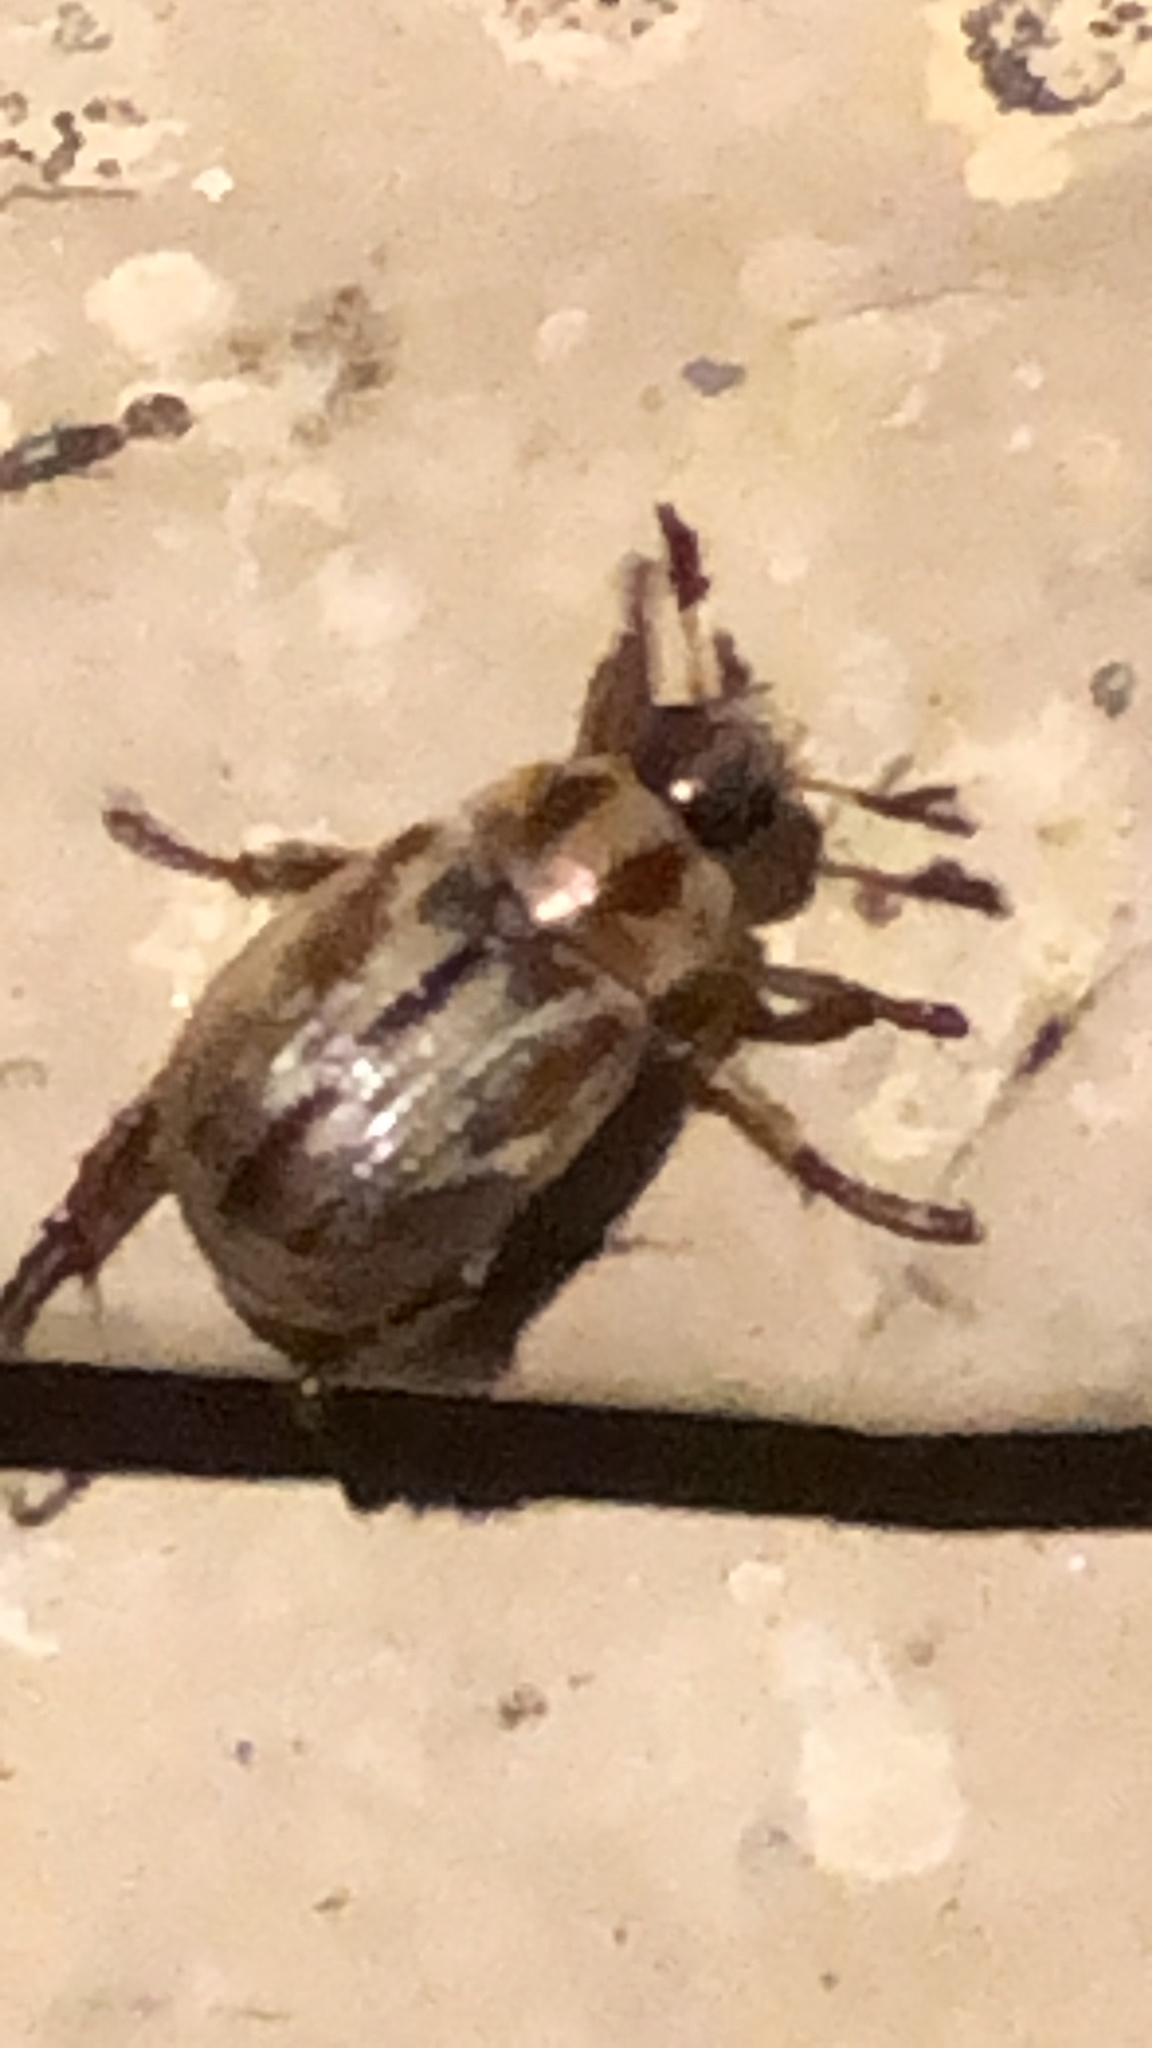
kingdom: Animalia
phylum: Arthropoda
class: Insecta
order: Coleoptera
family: Scarabaeidae
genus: Exomala
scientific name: Exomala orientalis
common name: Oriental beetle
